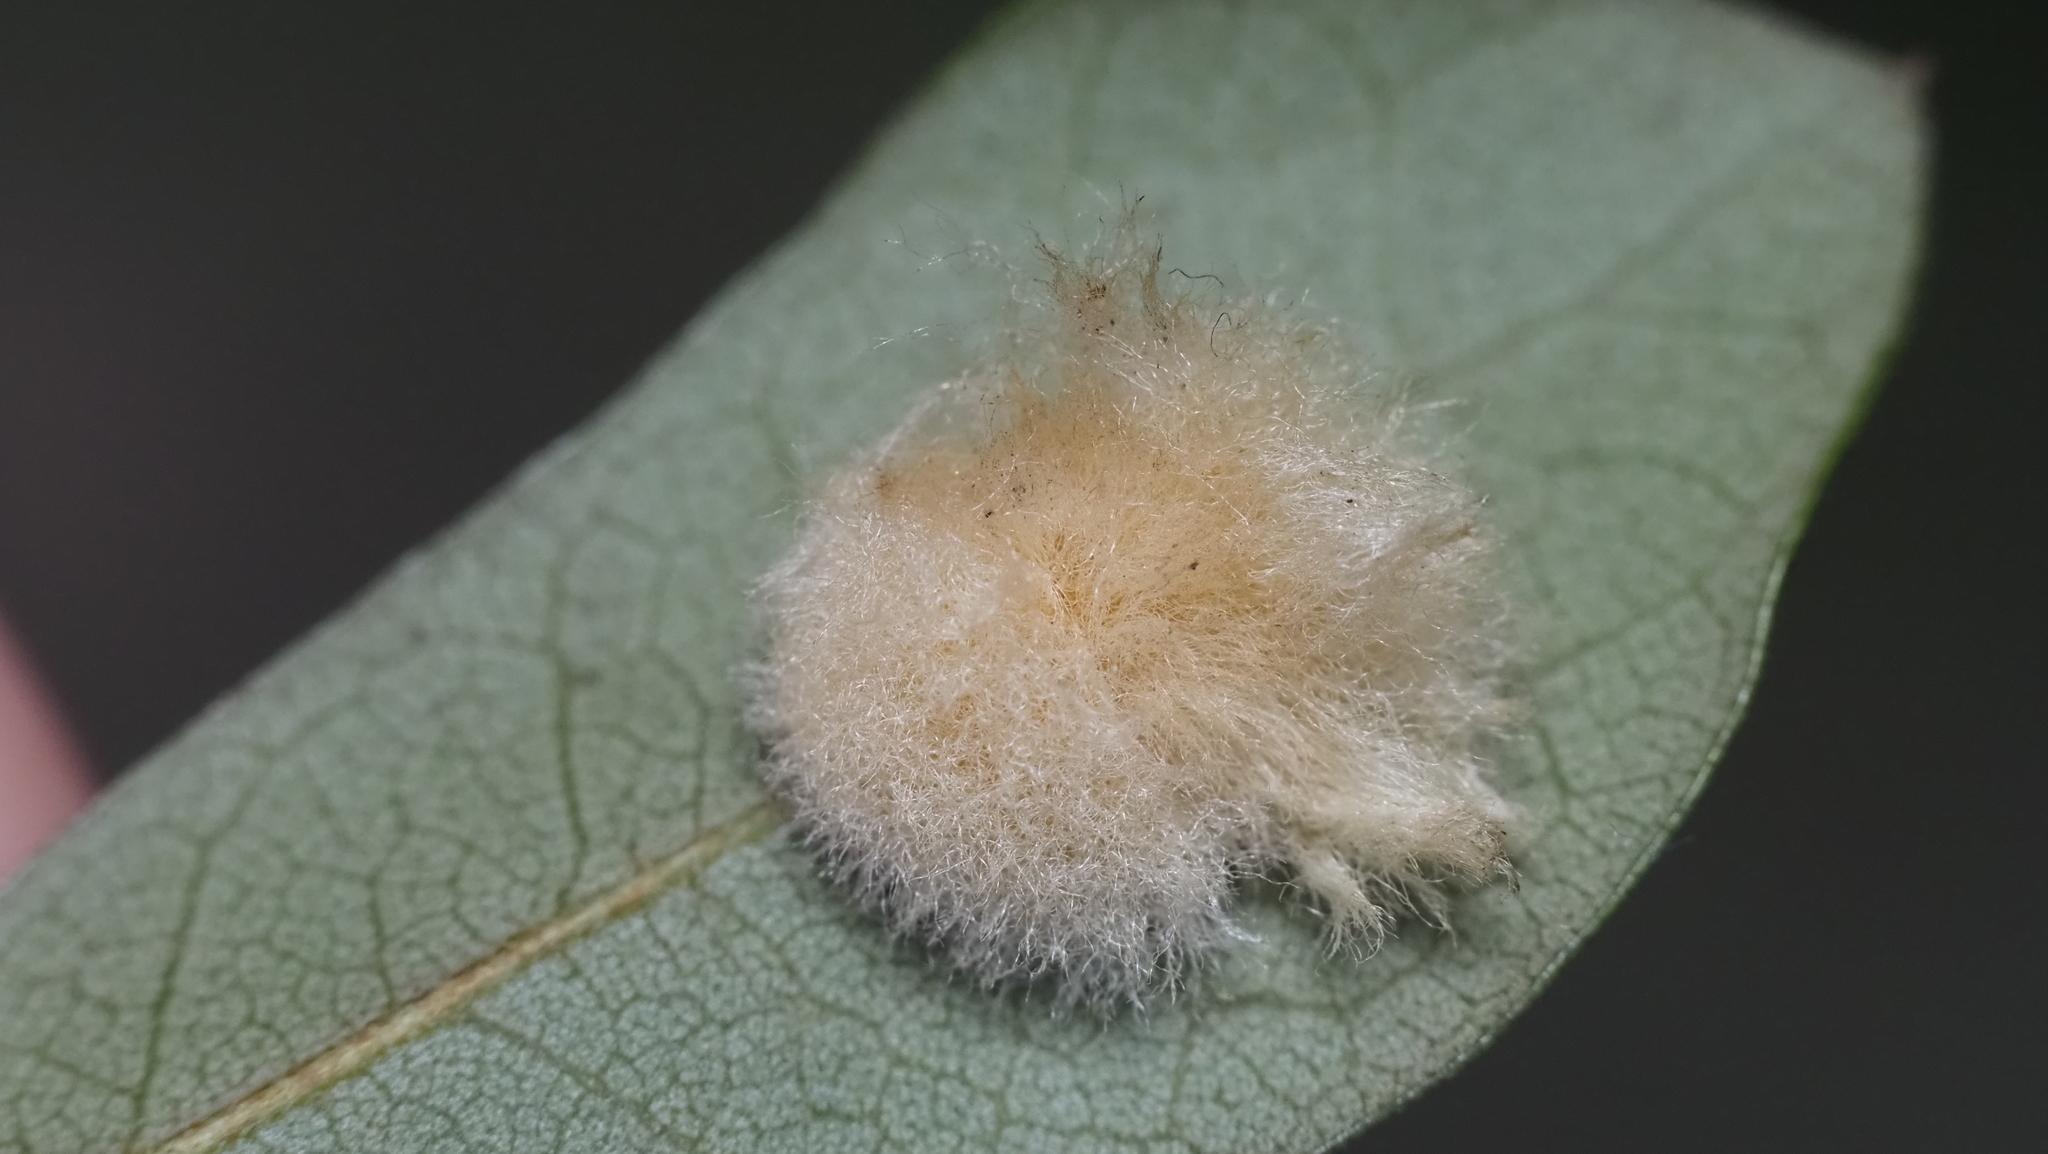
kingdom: Animalia
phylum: Arthropoda
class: Insecta
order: Hymenoptera
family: Cynipidae
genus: Andricus
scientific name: Andricus Druon quercuslanigerum
